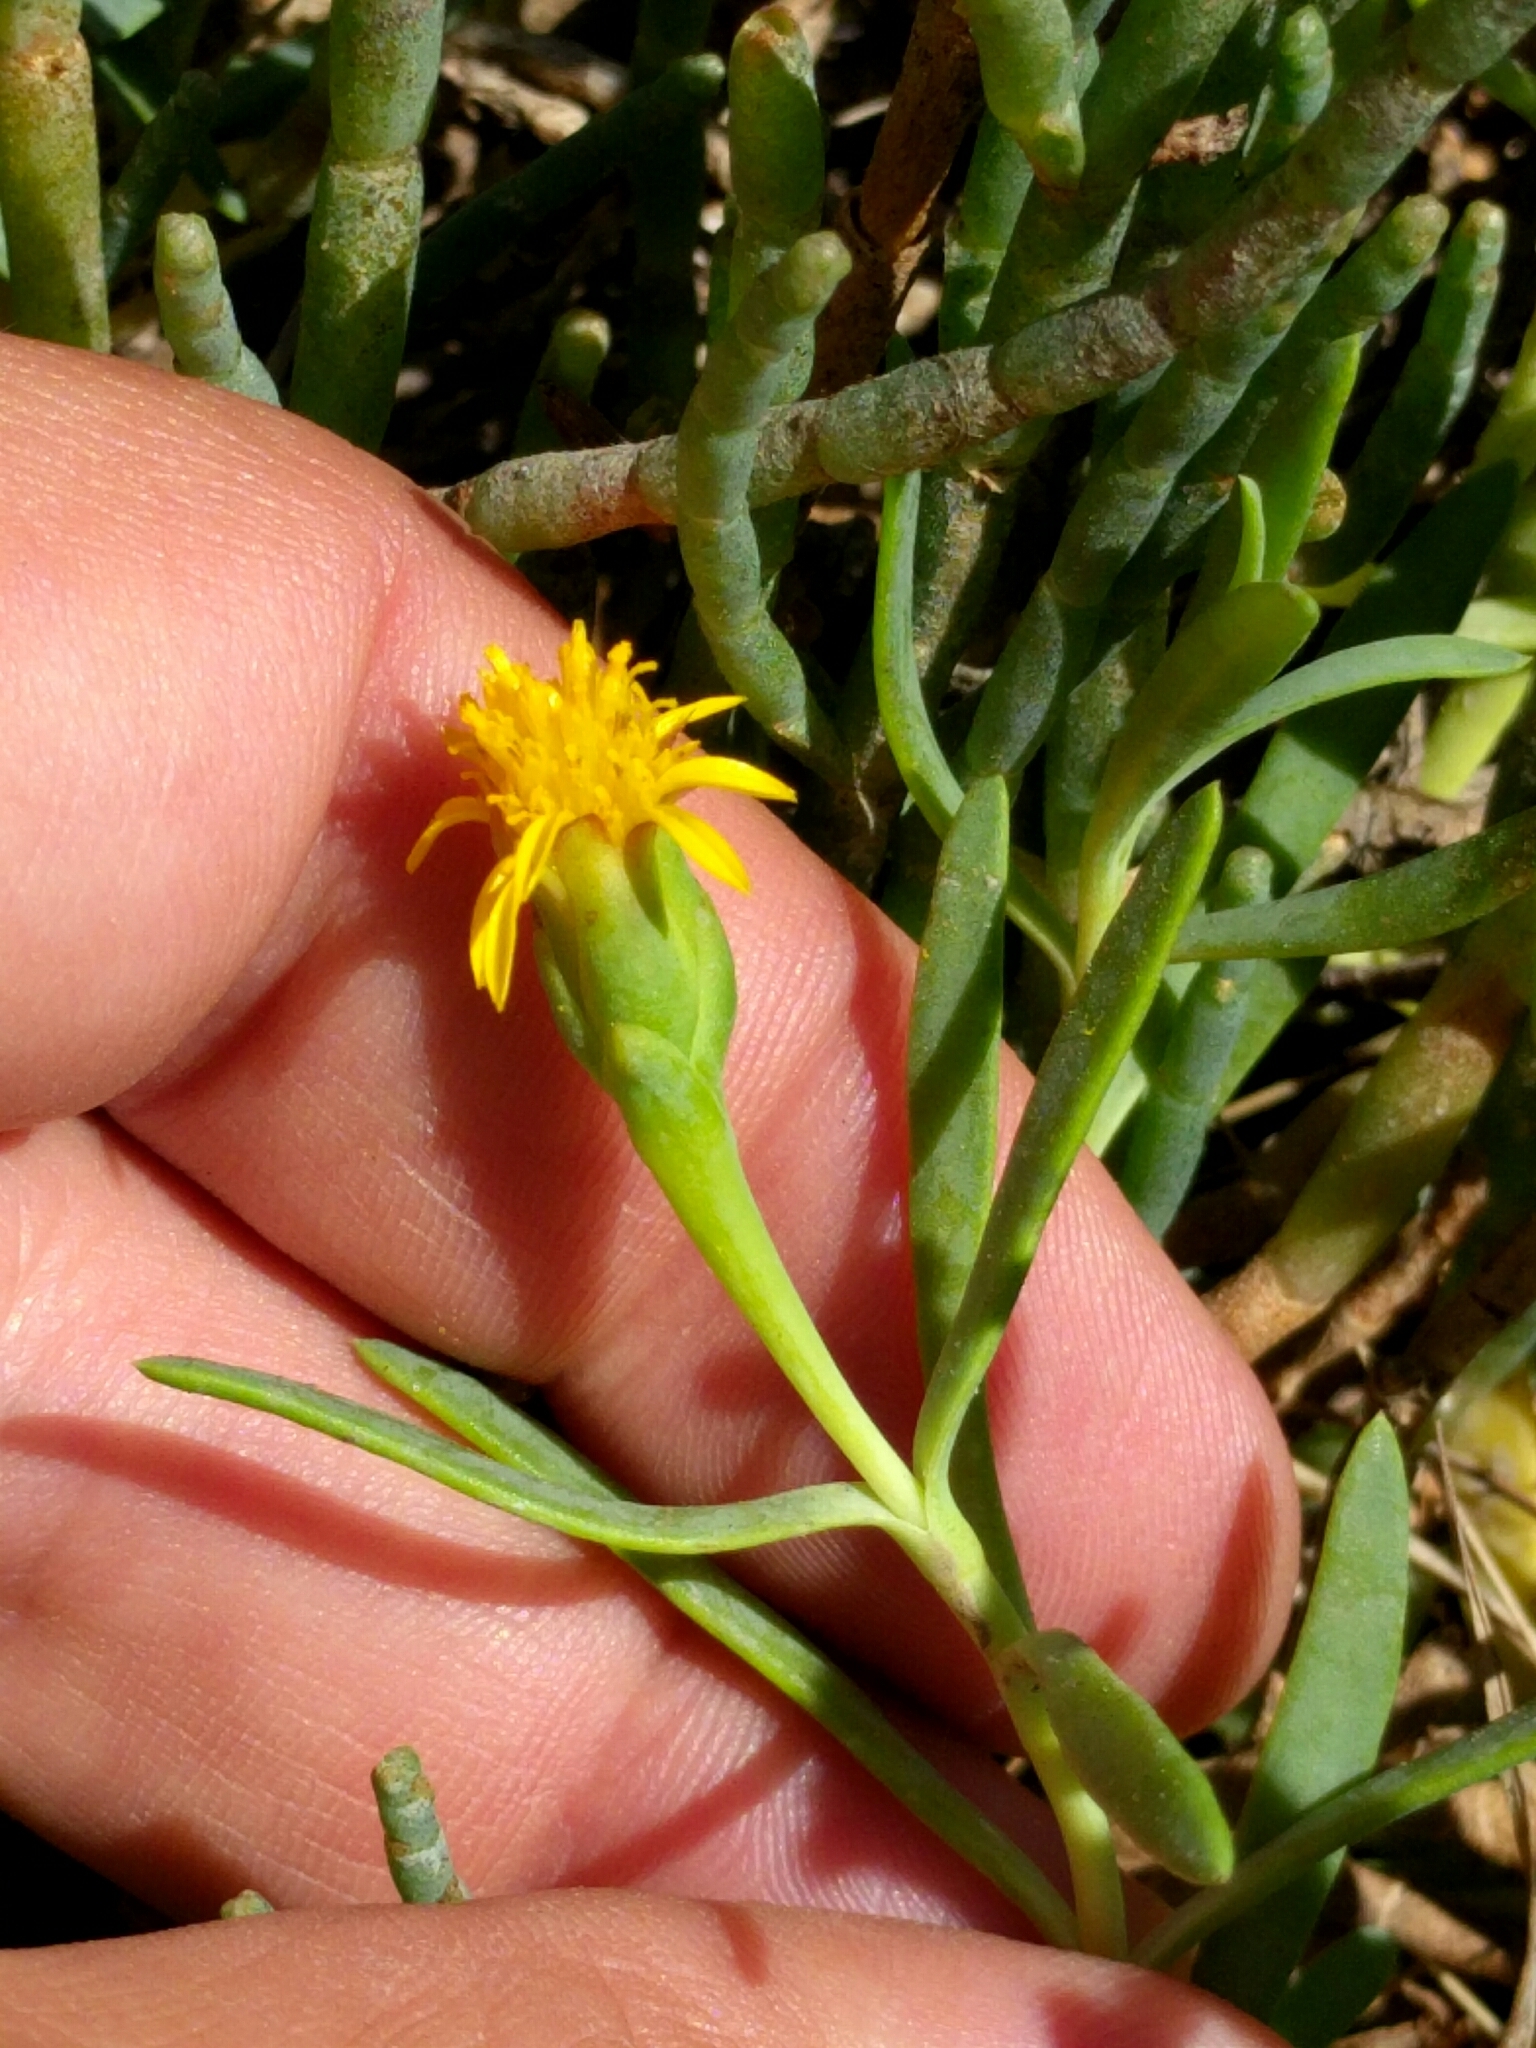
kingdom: Plantae
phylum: Tracheophyta
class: Magnoliopsida
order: Asterales
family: Asteraceae
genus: Jaumea
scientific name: Jaumea carnosa
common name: Fleshy jaumea
